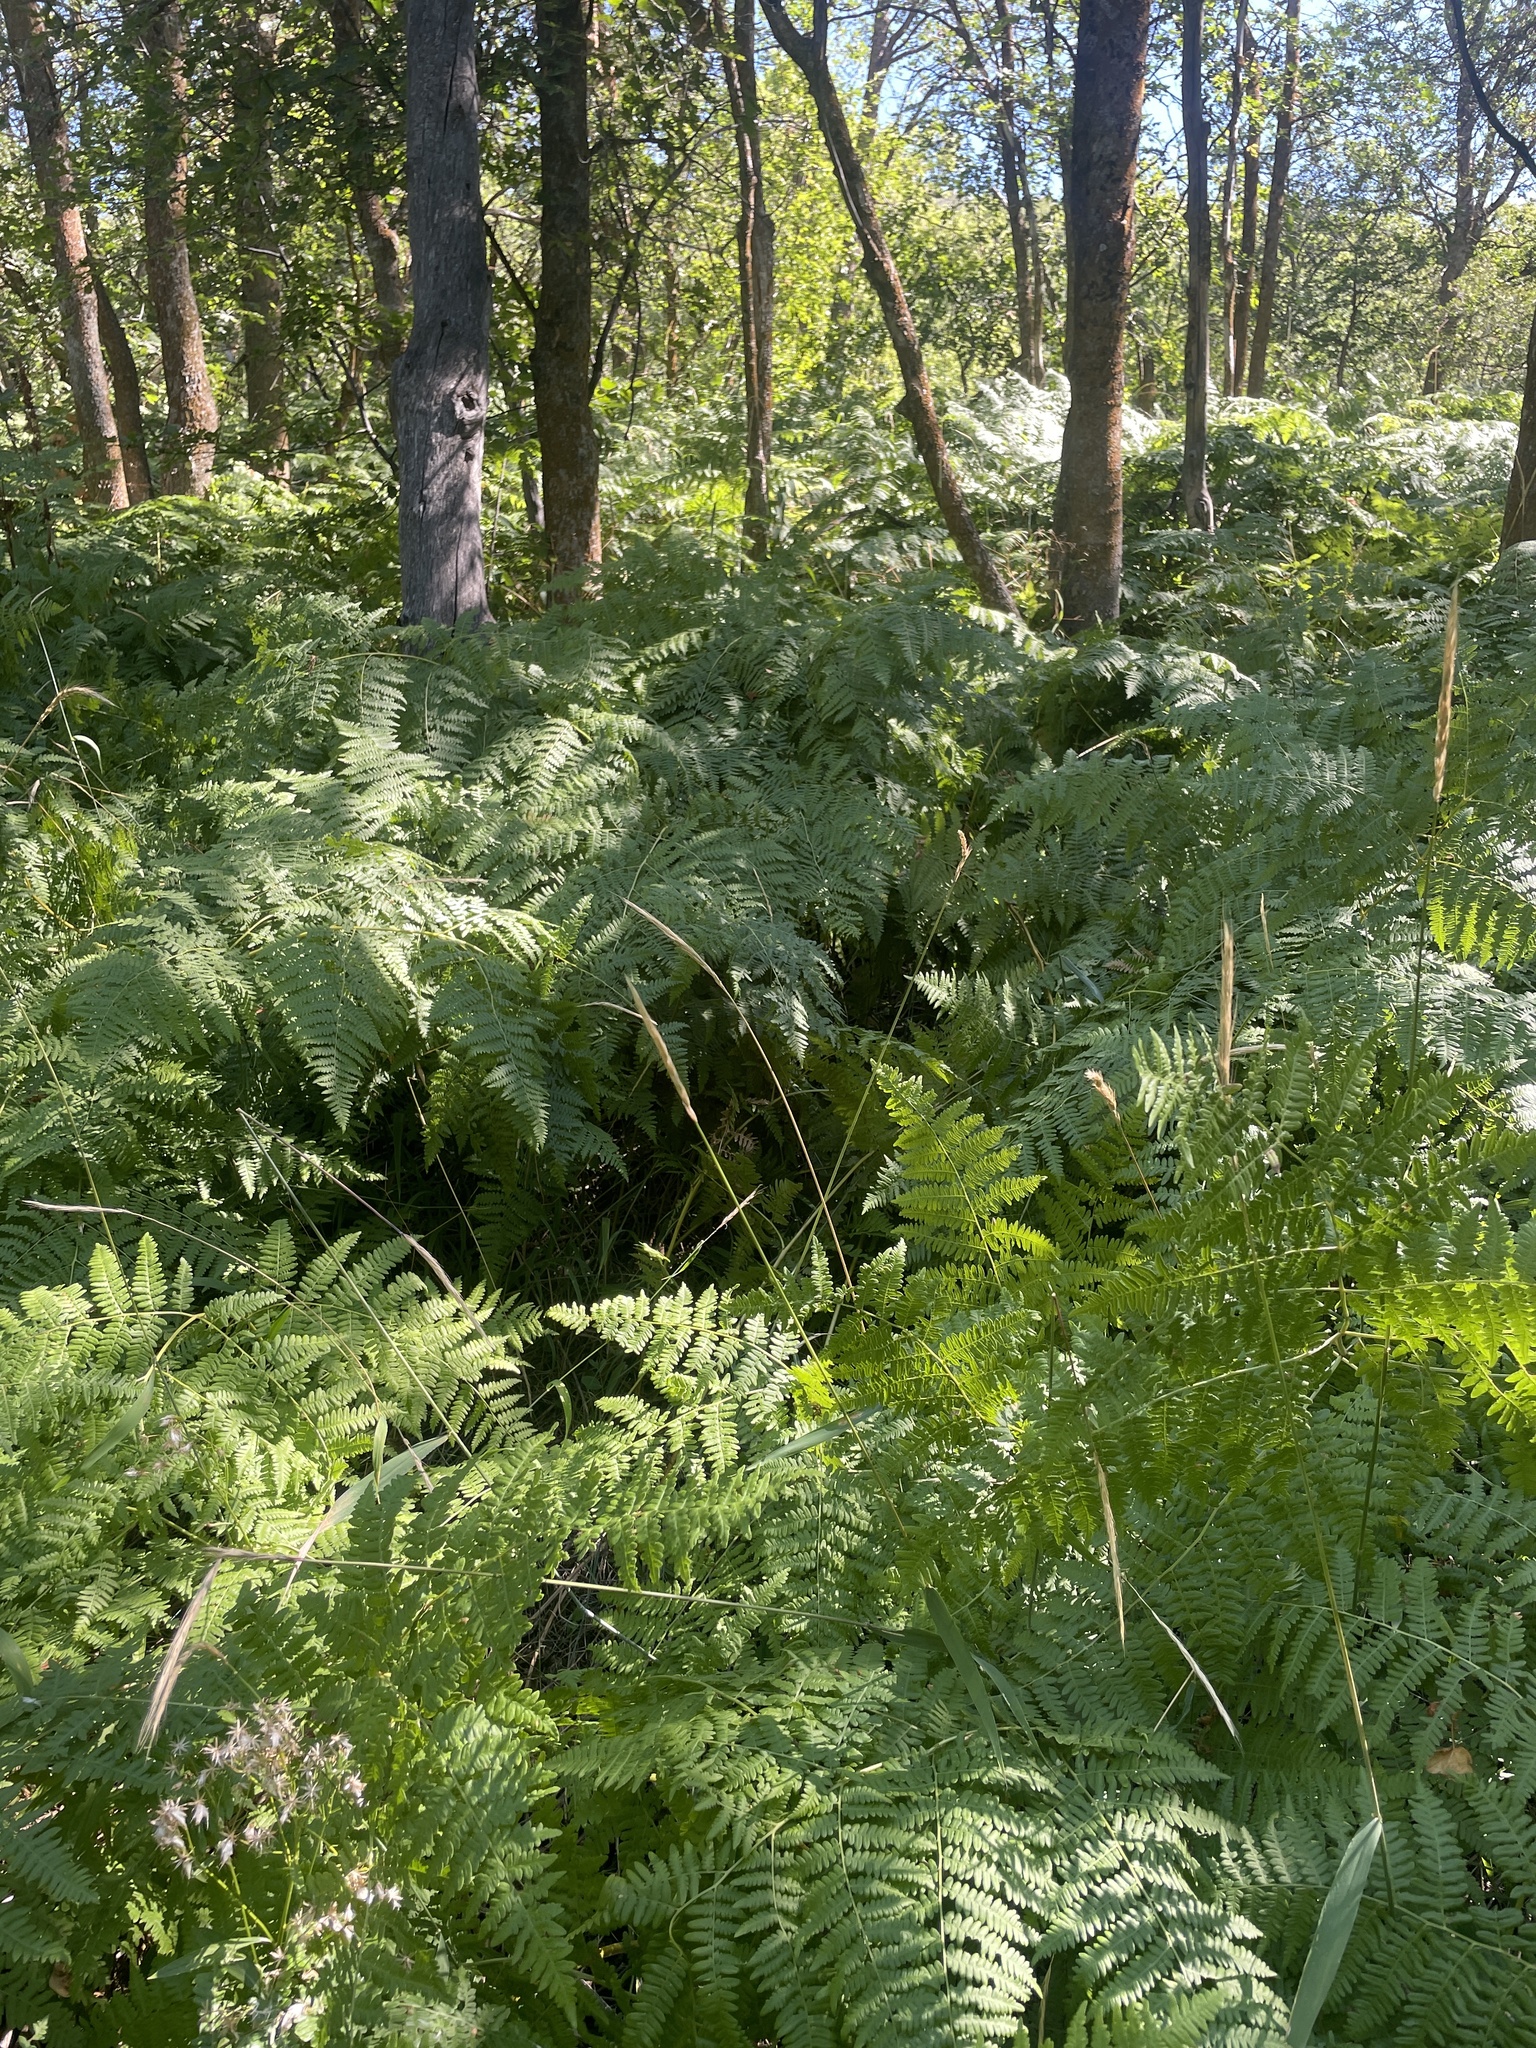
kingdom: Plantae
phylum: Tracheophyta
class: Polypodiopsida
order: Polypodiales
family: Dennstaedtiaceae
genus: Pteridium
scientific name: Pteridium aquilinum
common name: Bracken
